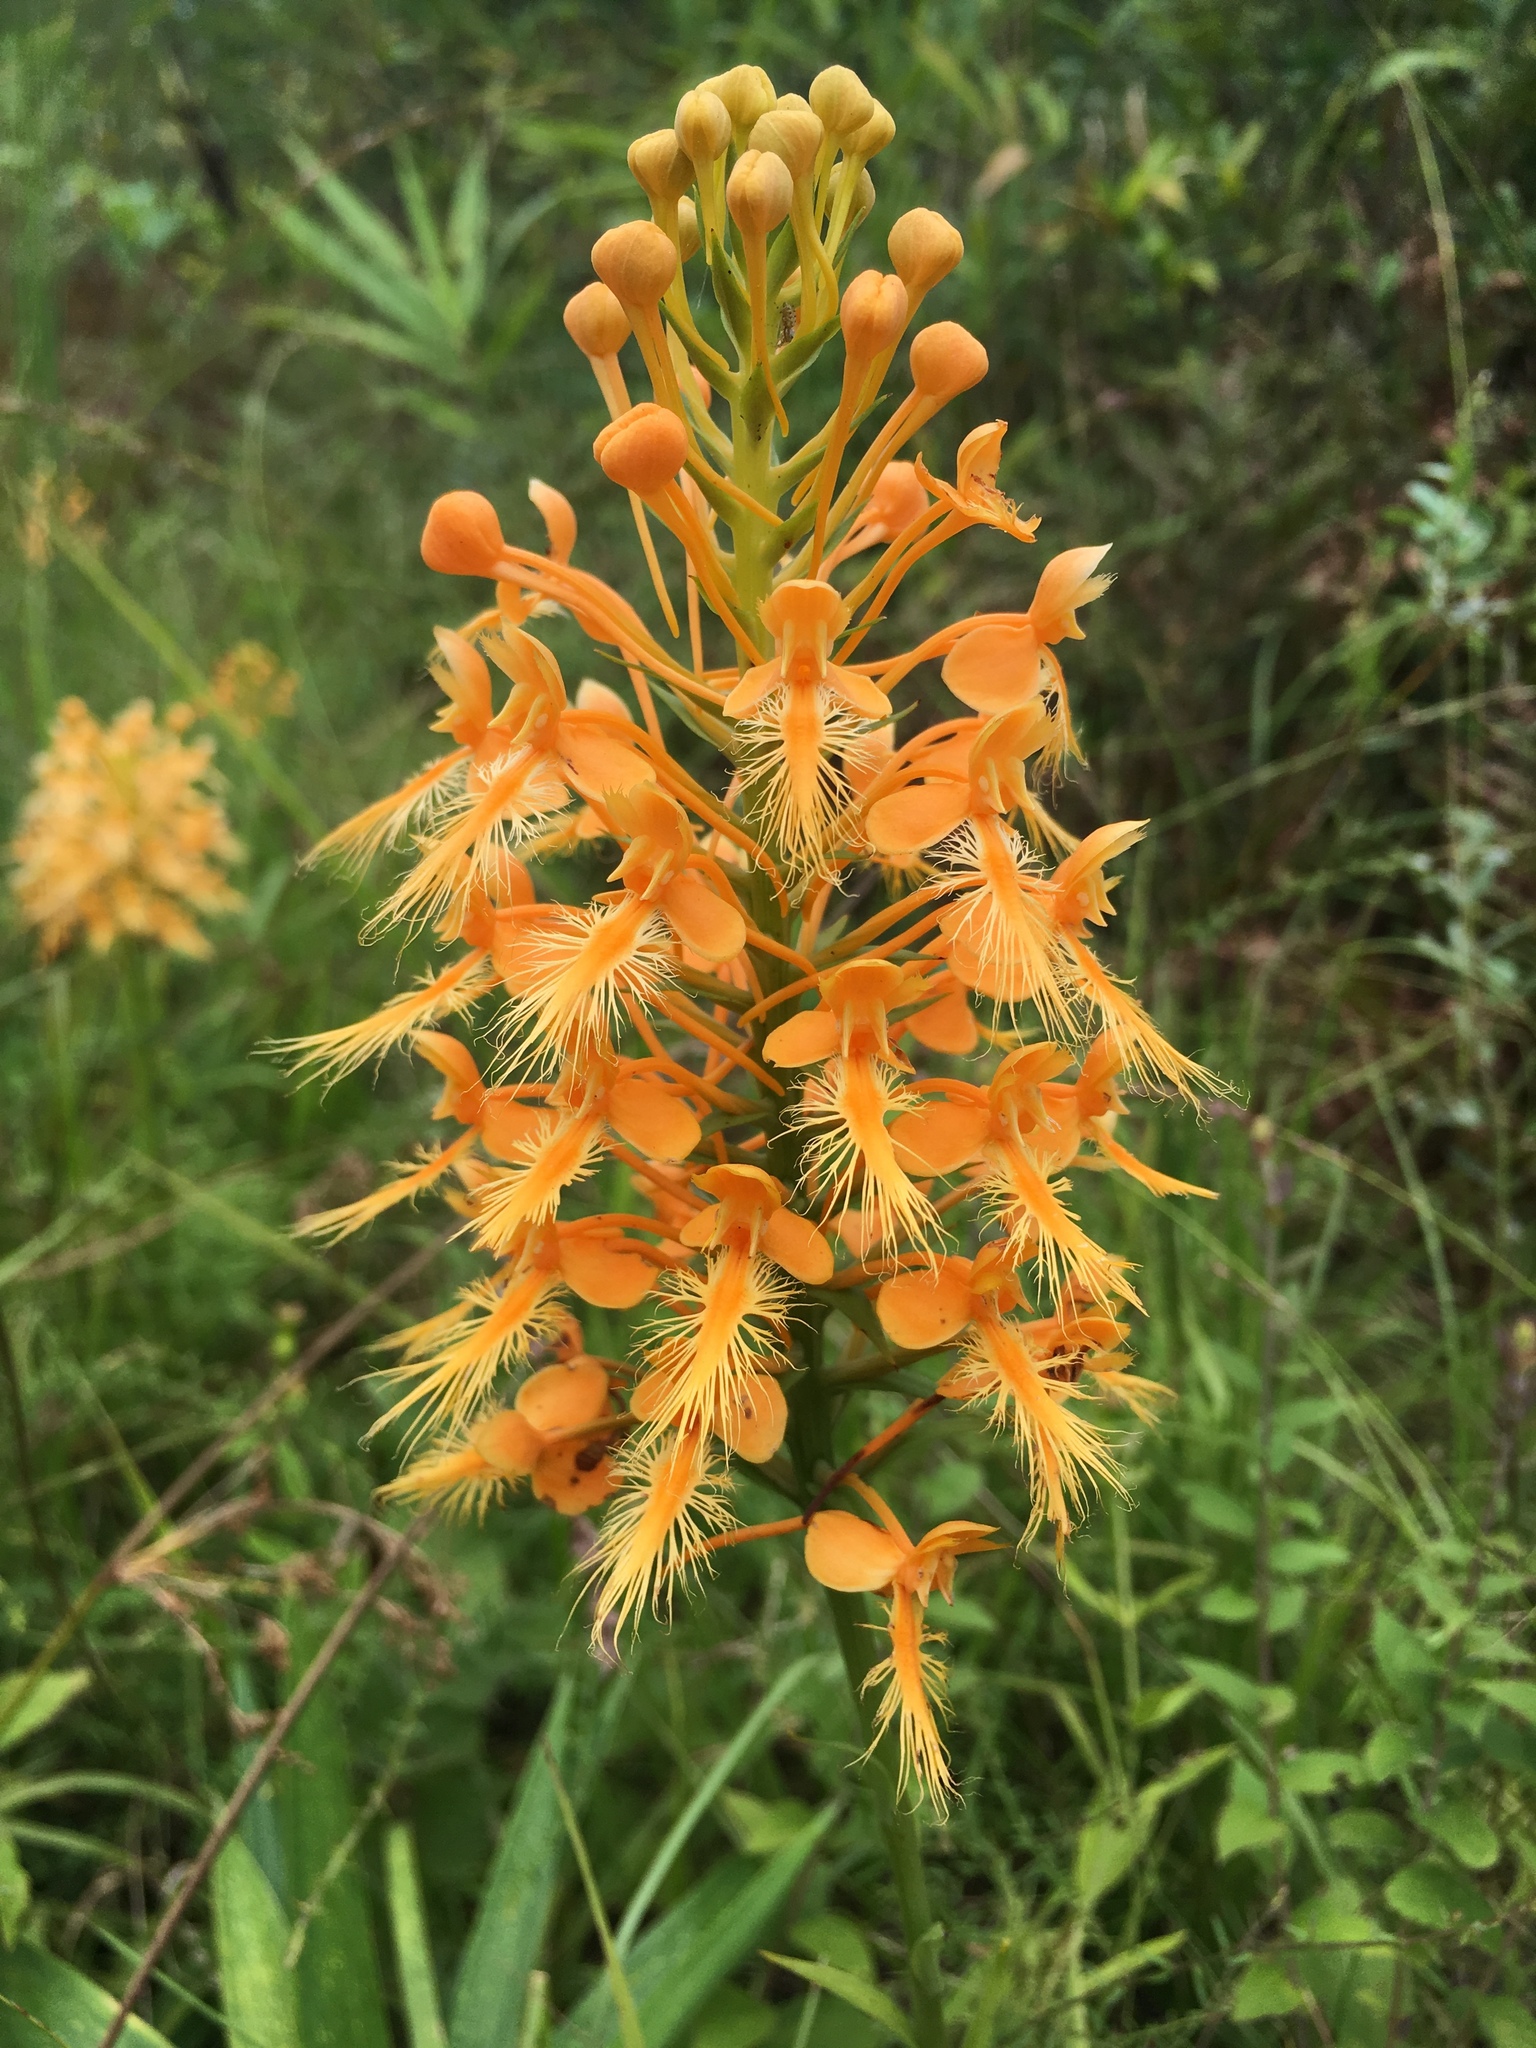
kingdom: Plantae
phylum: Tracheophyta
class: Liliopsida
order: Asparagales
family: Orchidaceae
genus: Platanthera
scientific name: Platanthera ciliaris
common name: Yellow fringed orchid
